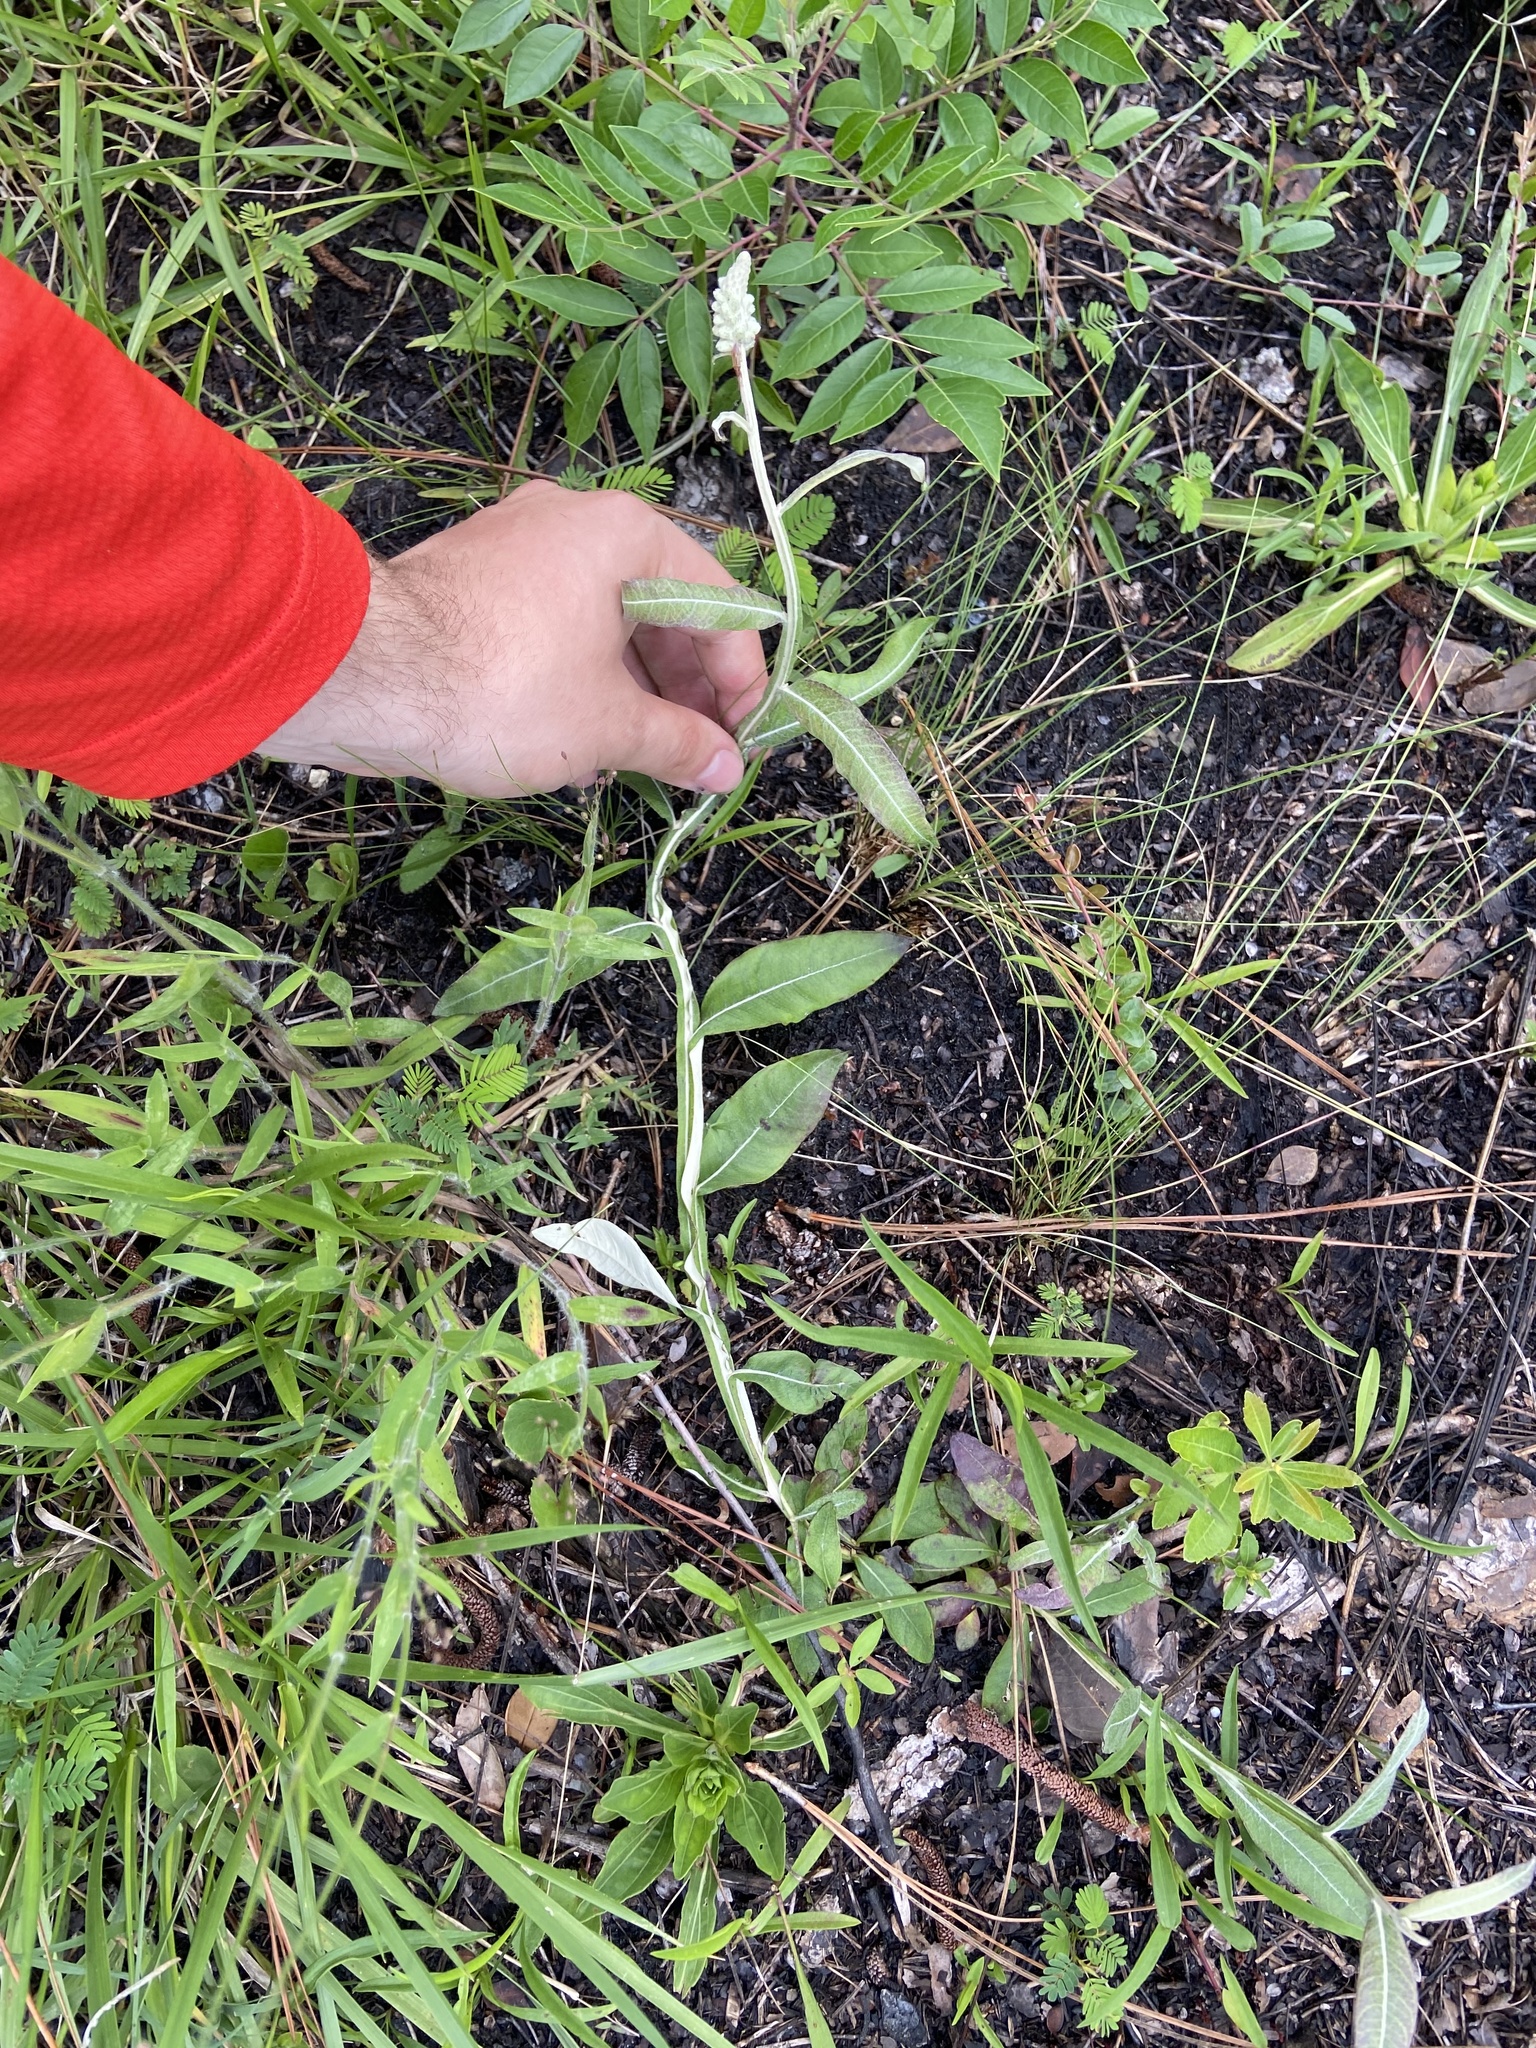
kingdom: Plantae
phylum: Tracheophyta
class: Magnoliopsida
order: Asterales
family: Asteraceae
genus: Pterocaulon
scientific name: Pterocaulon pycnostachyum
